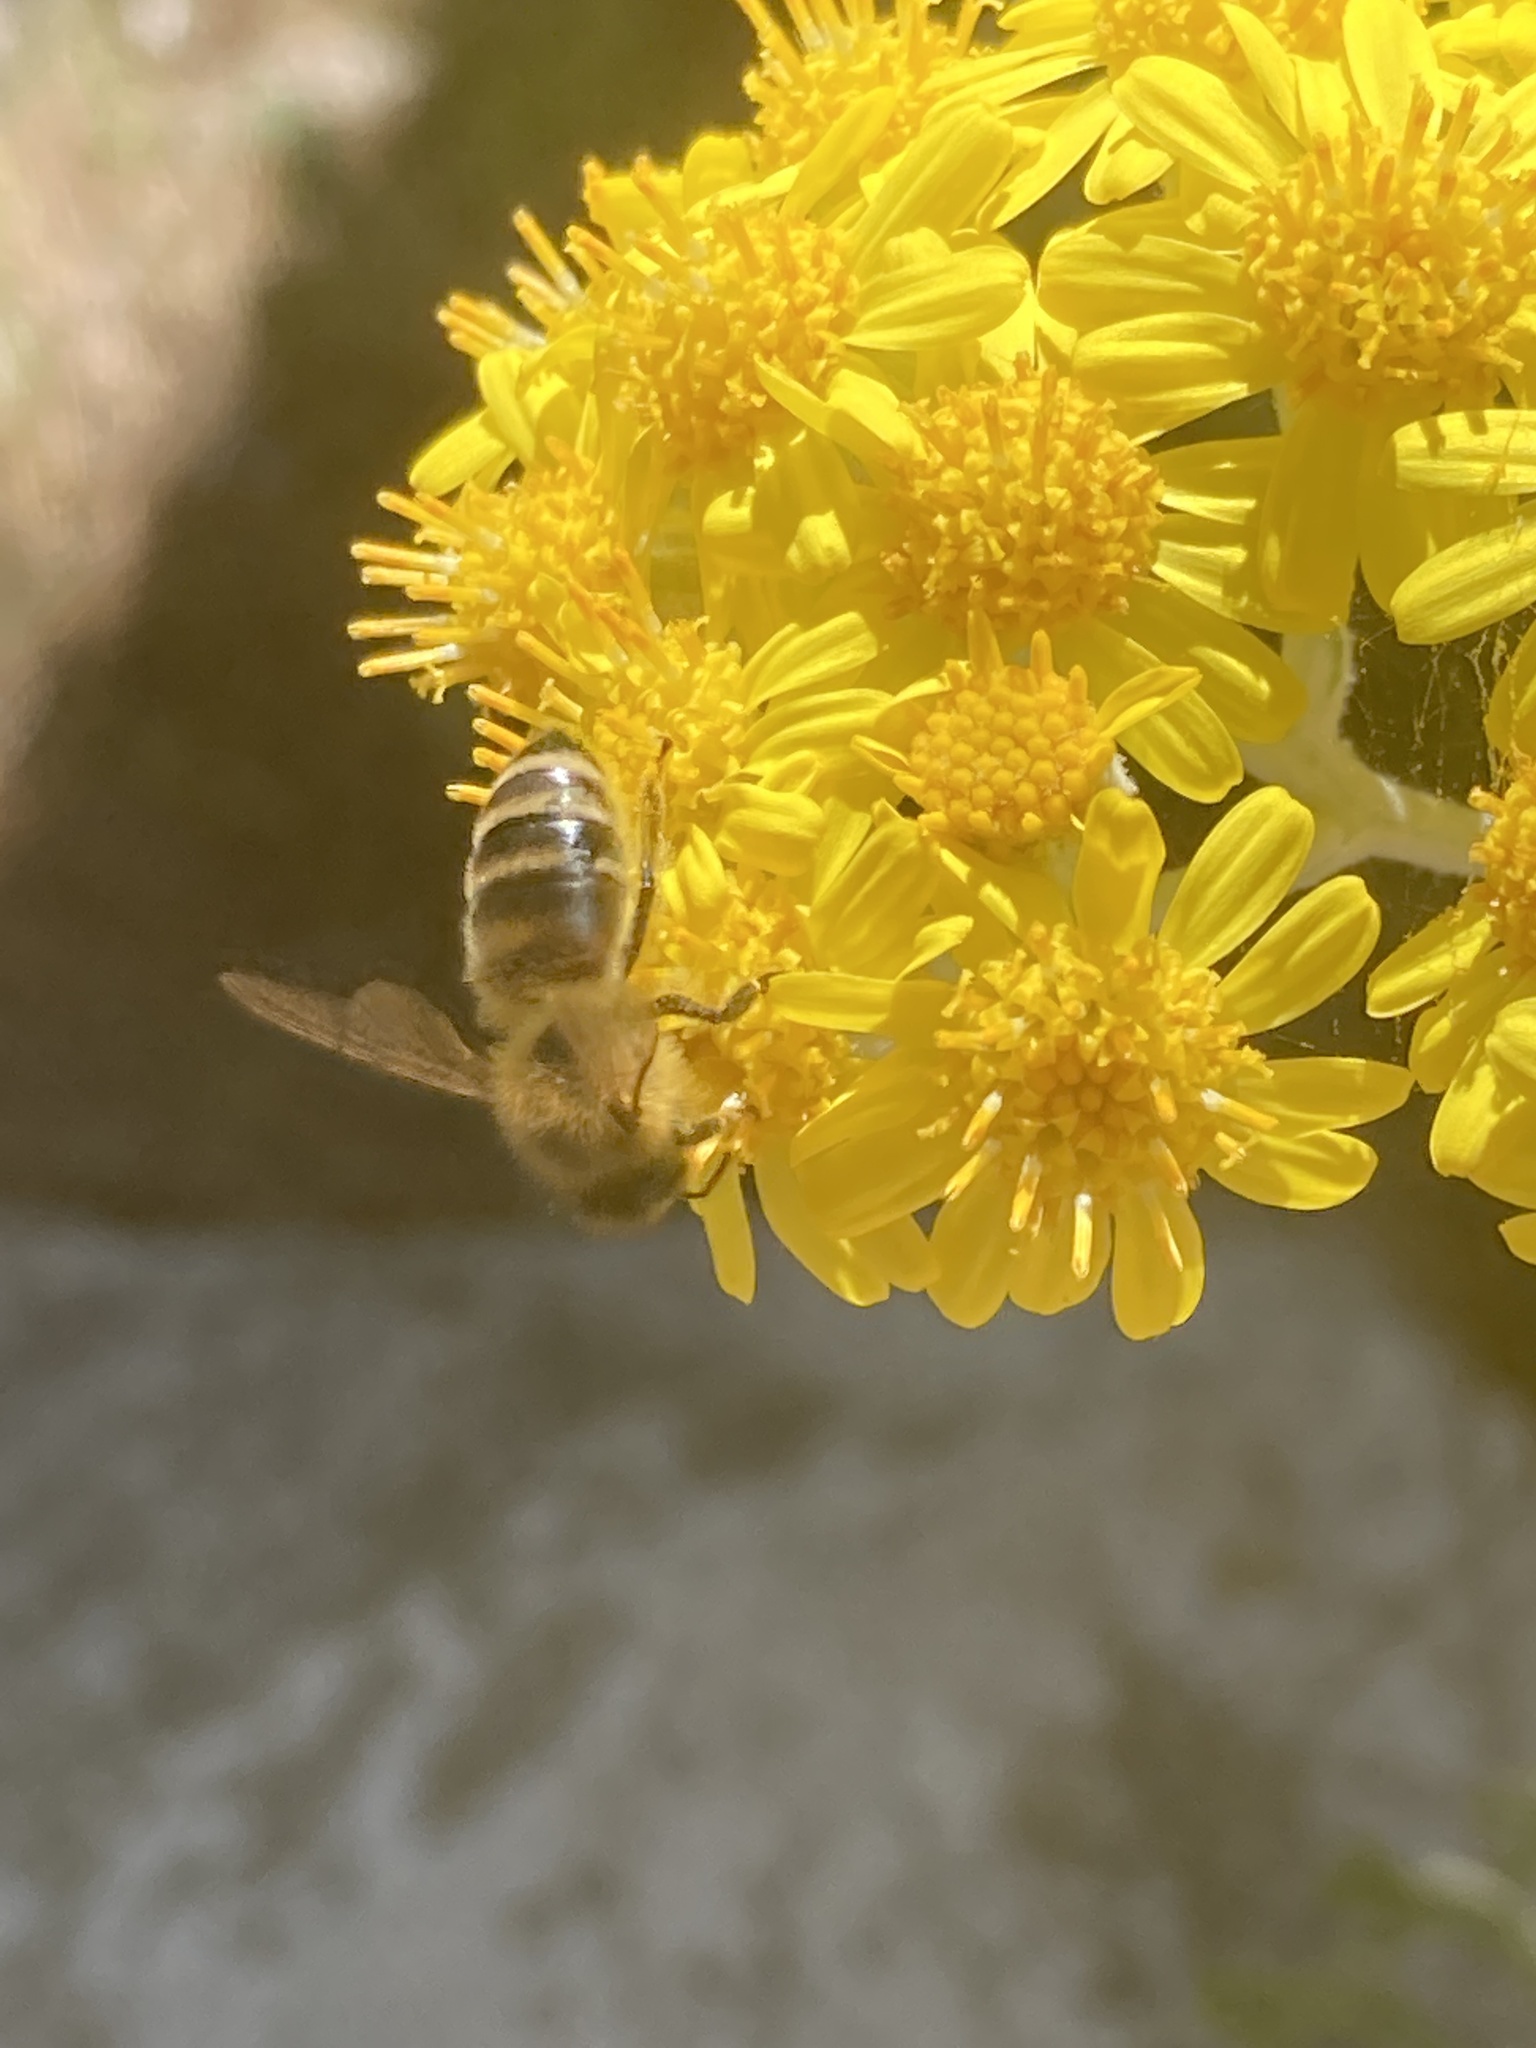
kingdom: Animalia
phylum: Arthropoda
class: Insecta
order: Hymenoptera
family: Apidae
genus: Apis
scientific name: Apis mellifera
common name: Honey bee
